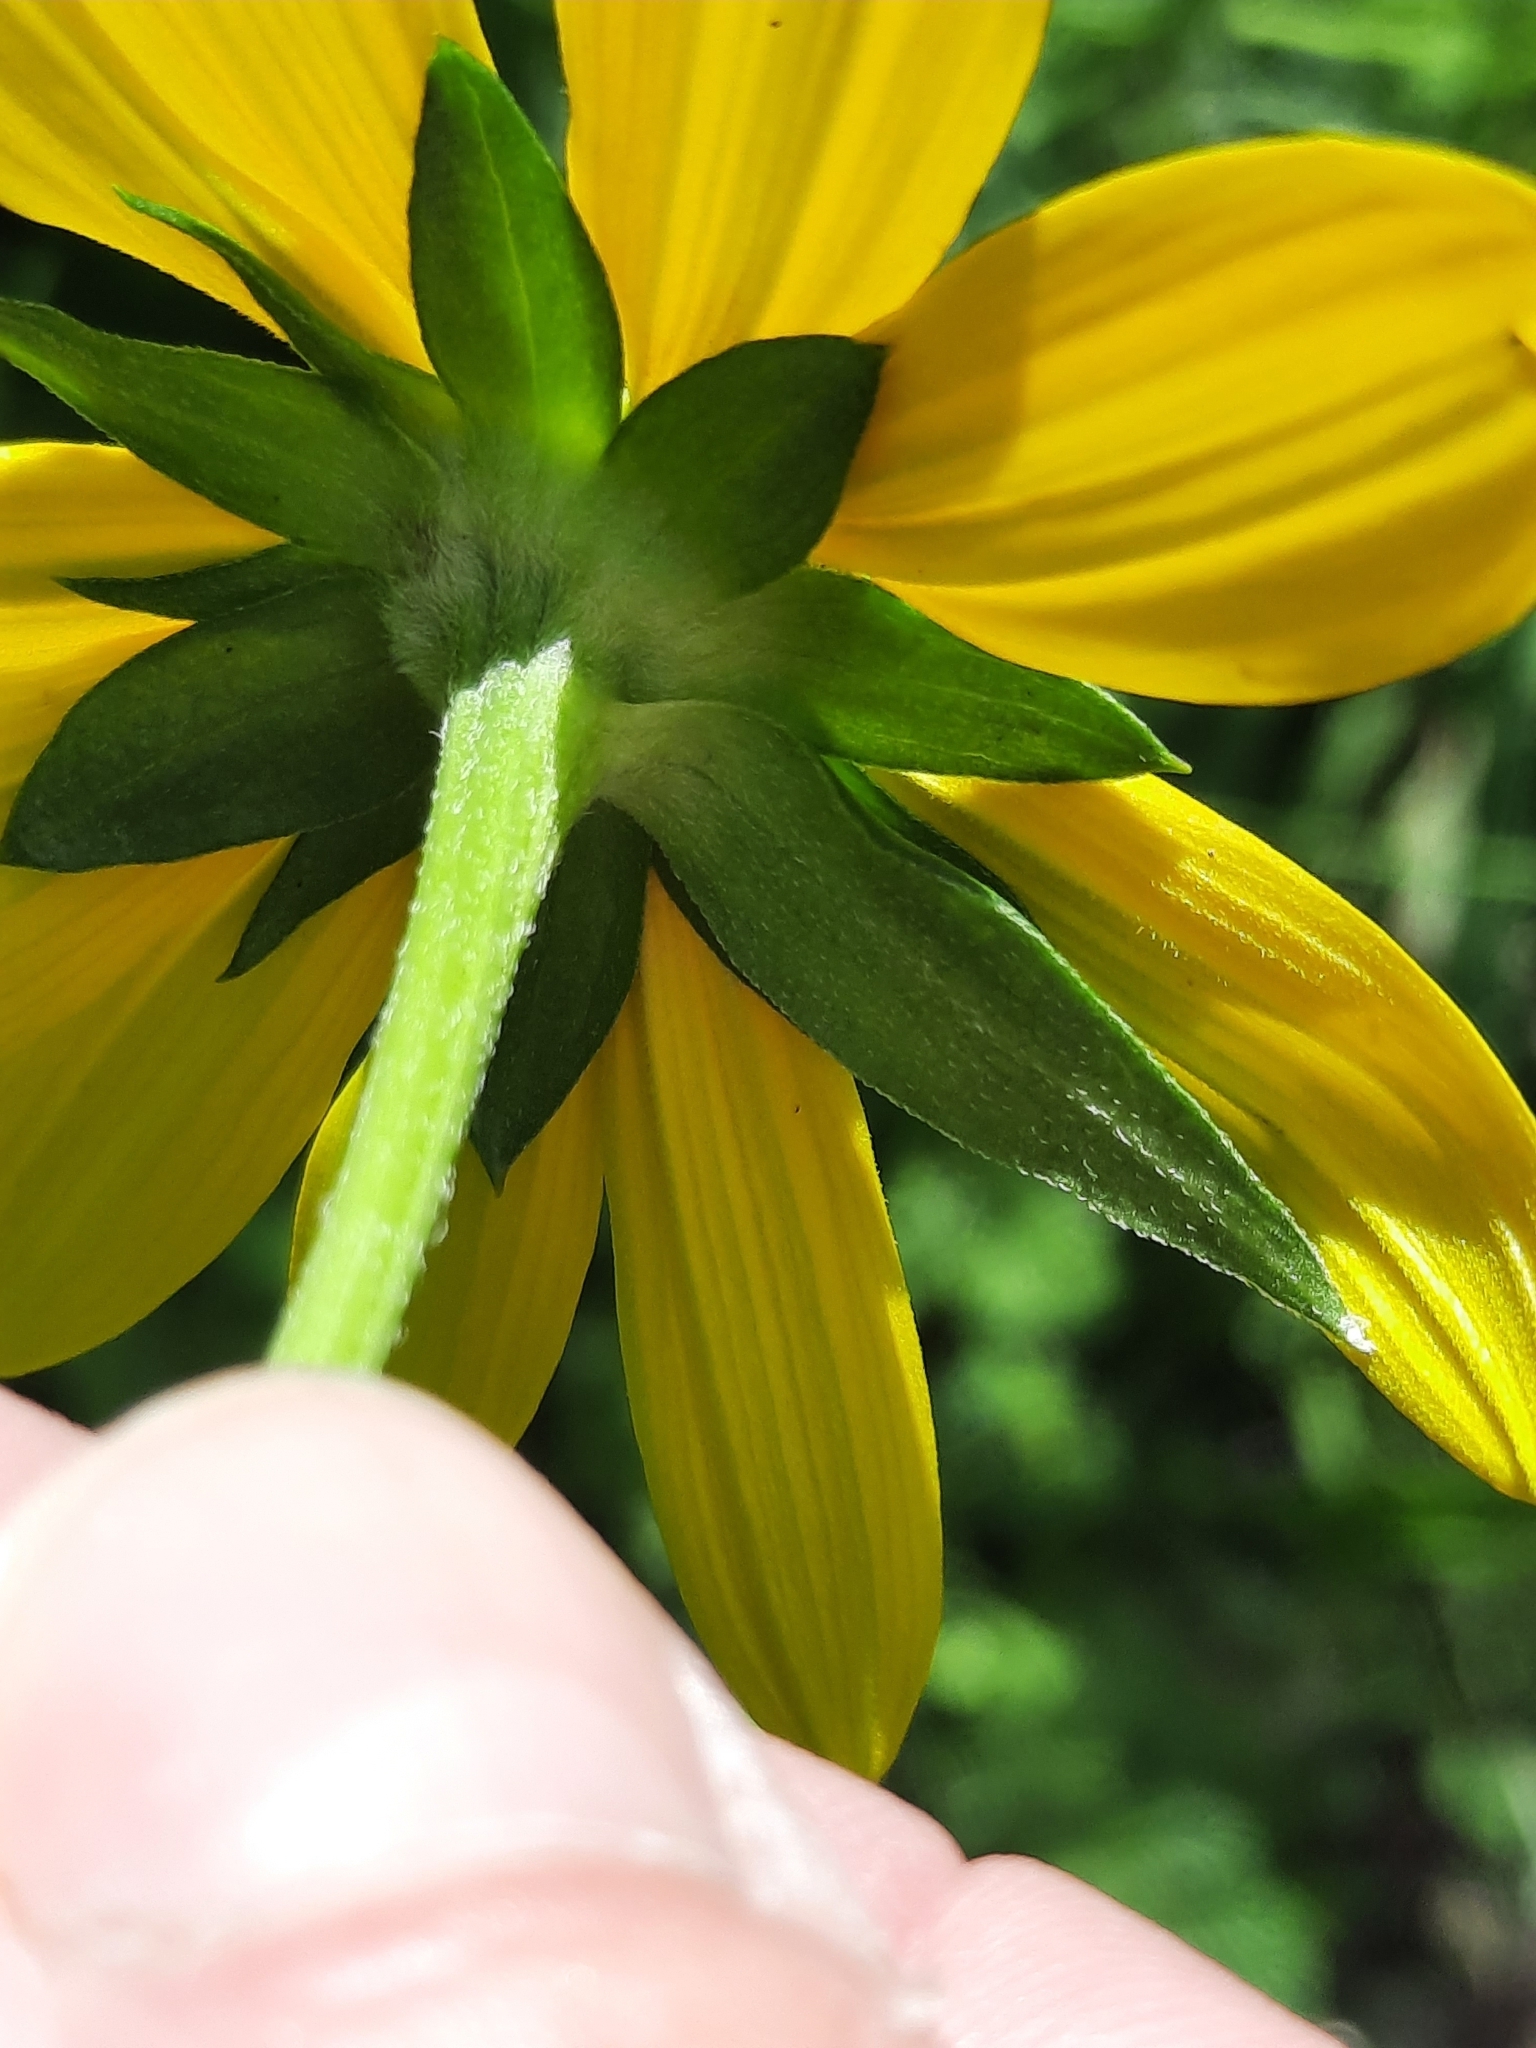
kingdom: Plantae
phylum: Tracheophyta
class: Magnoliopsida
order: Asterales
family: Asteraceae
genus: Rudbeckia
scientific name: Rudbeckia laciniata
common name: Coneflower
